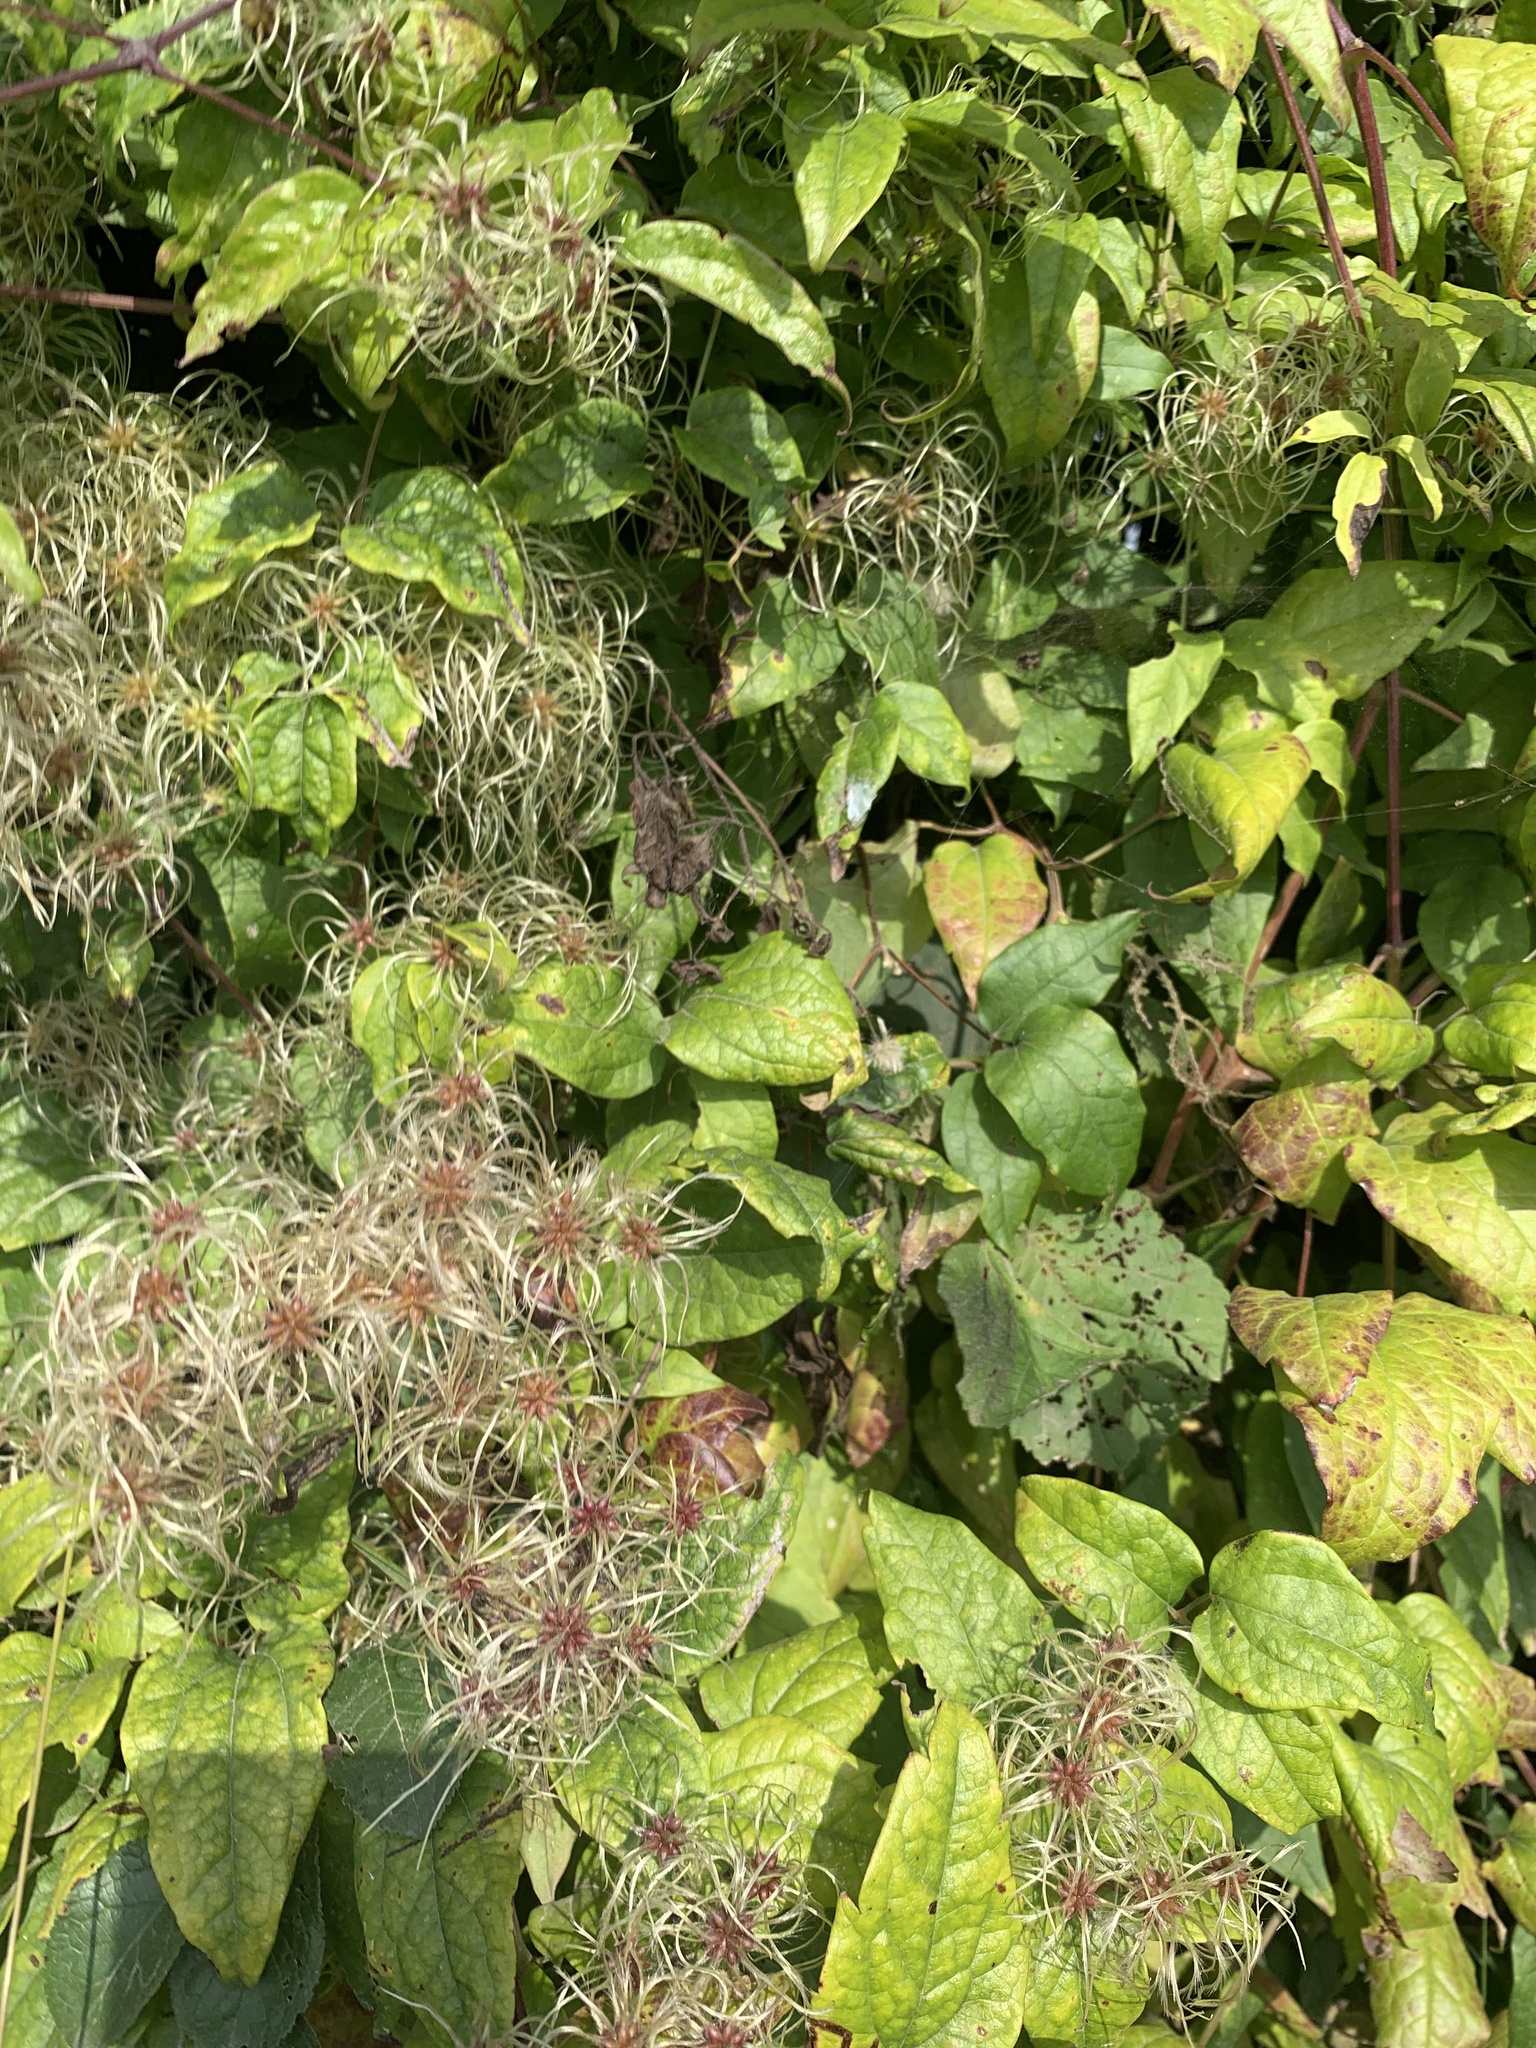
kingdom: Plantae
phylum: Tracheophyta
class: Magnoliopsida
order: Ranunculales
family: Ranunculaceae
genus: Clematis
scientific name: Clematis vitalba
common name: Evergreen clematis
